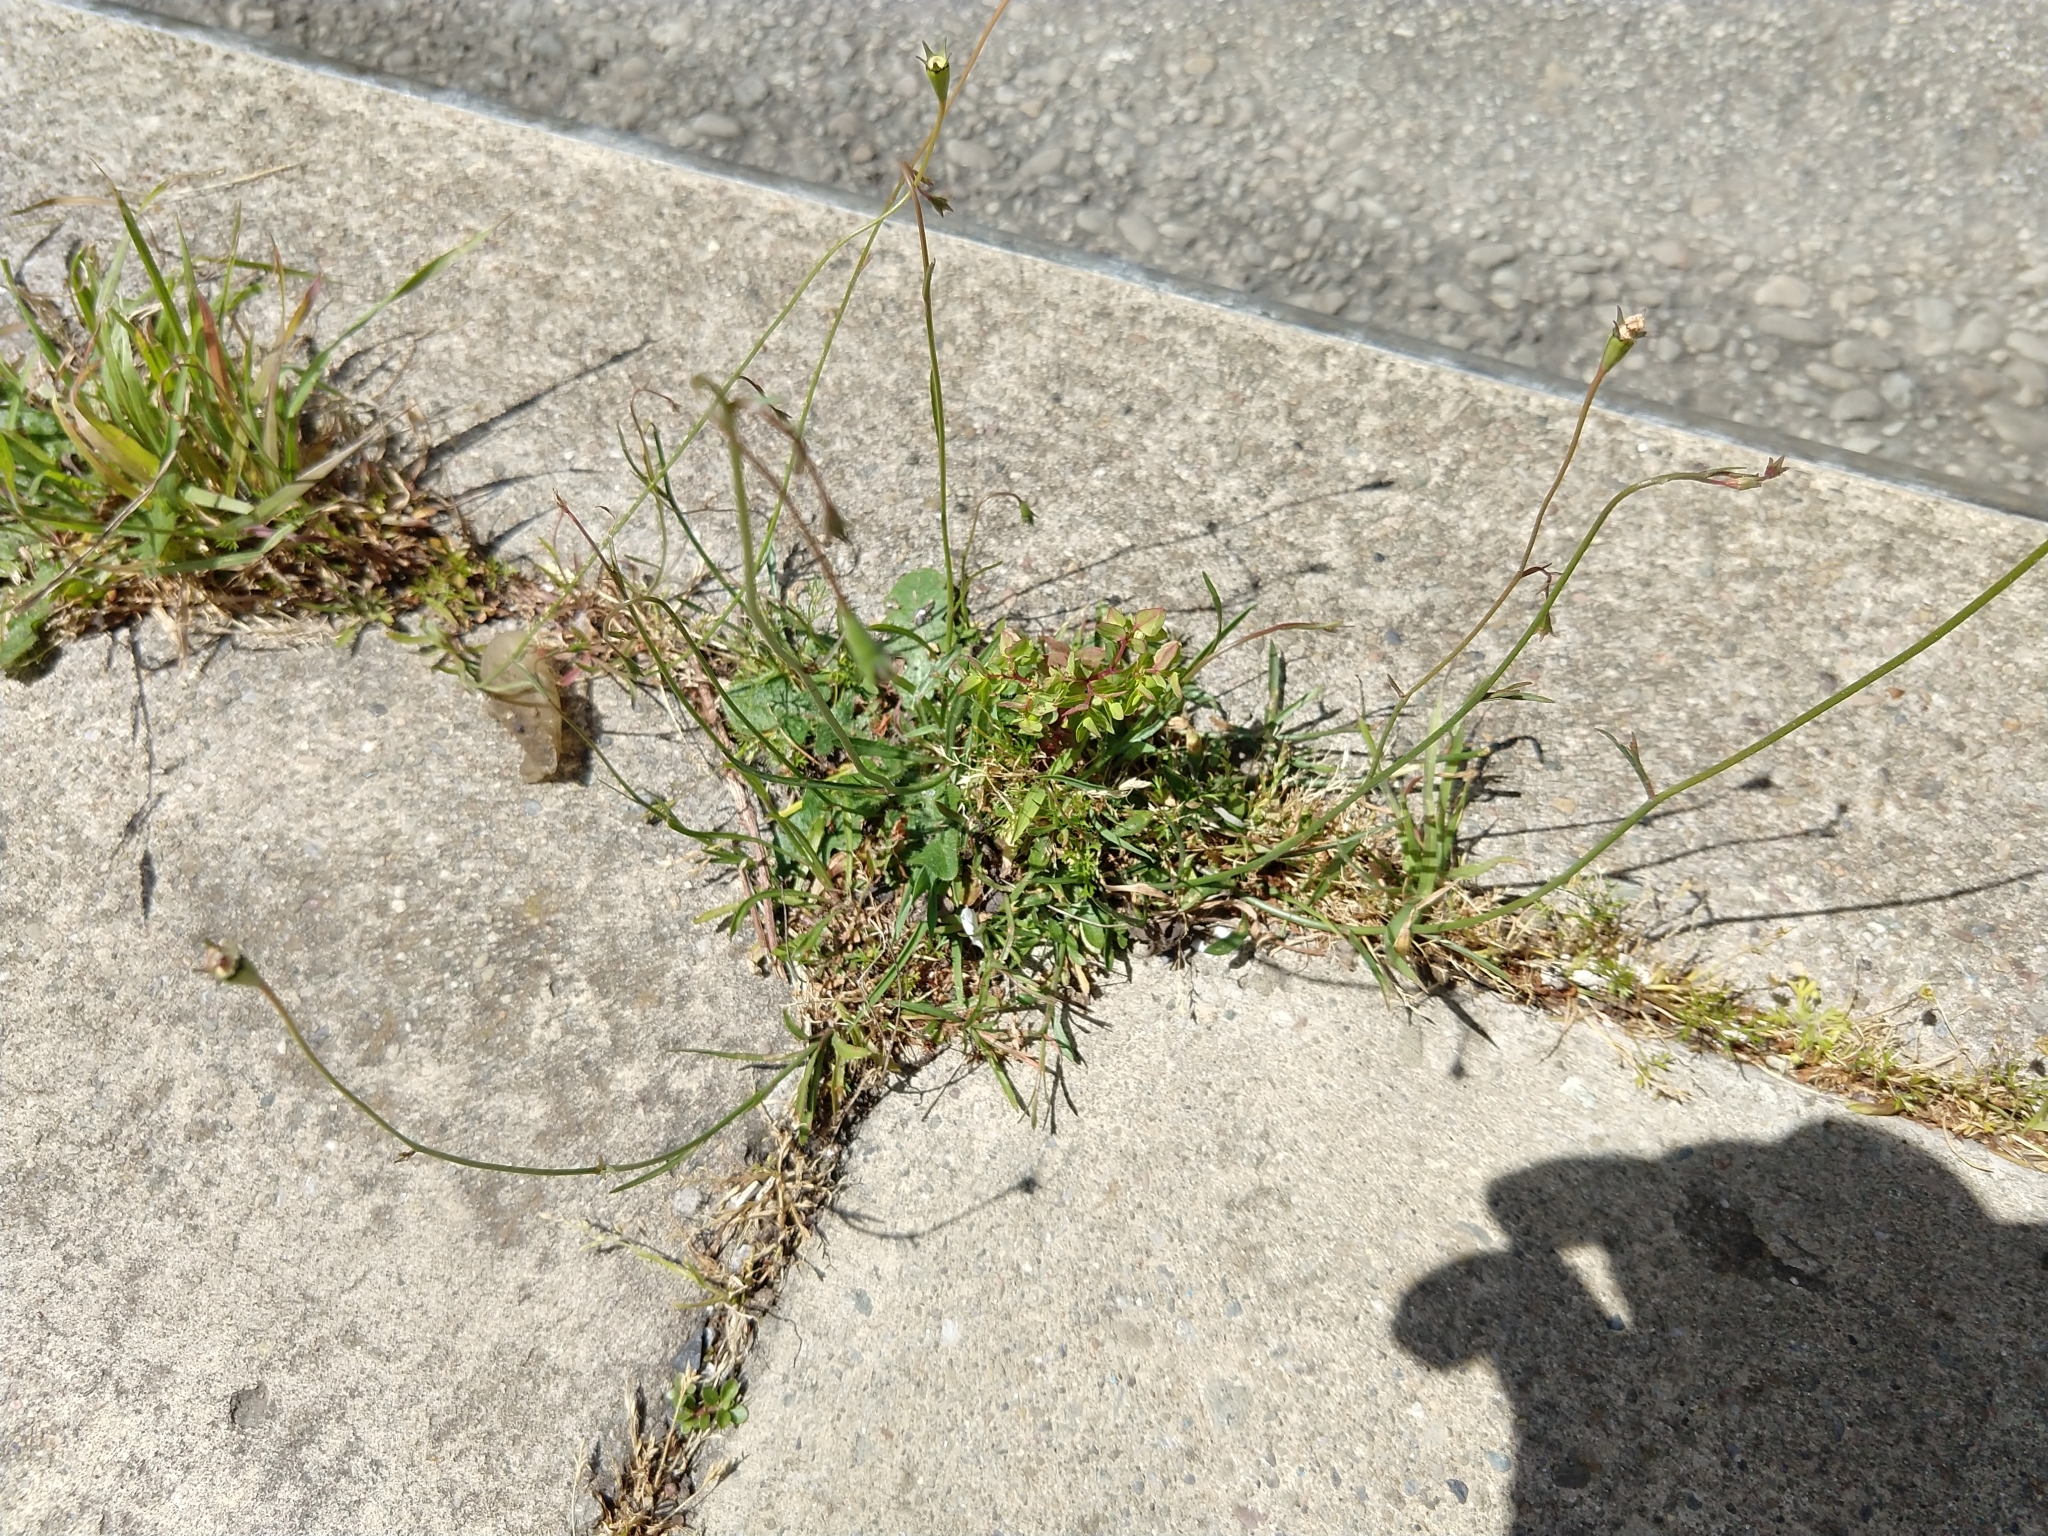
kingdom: Plantae
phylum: Tracheophyta
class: Magnoliopsida
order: Asterales
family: Campanulaceae
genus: Wahlenbergia
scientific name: Wahlenbergia marginata
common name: Southern rockbell
